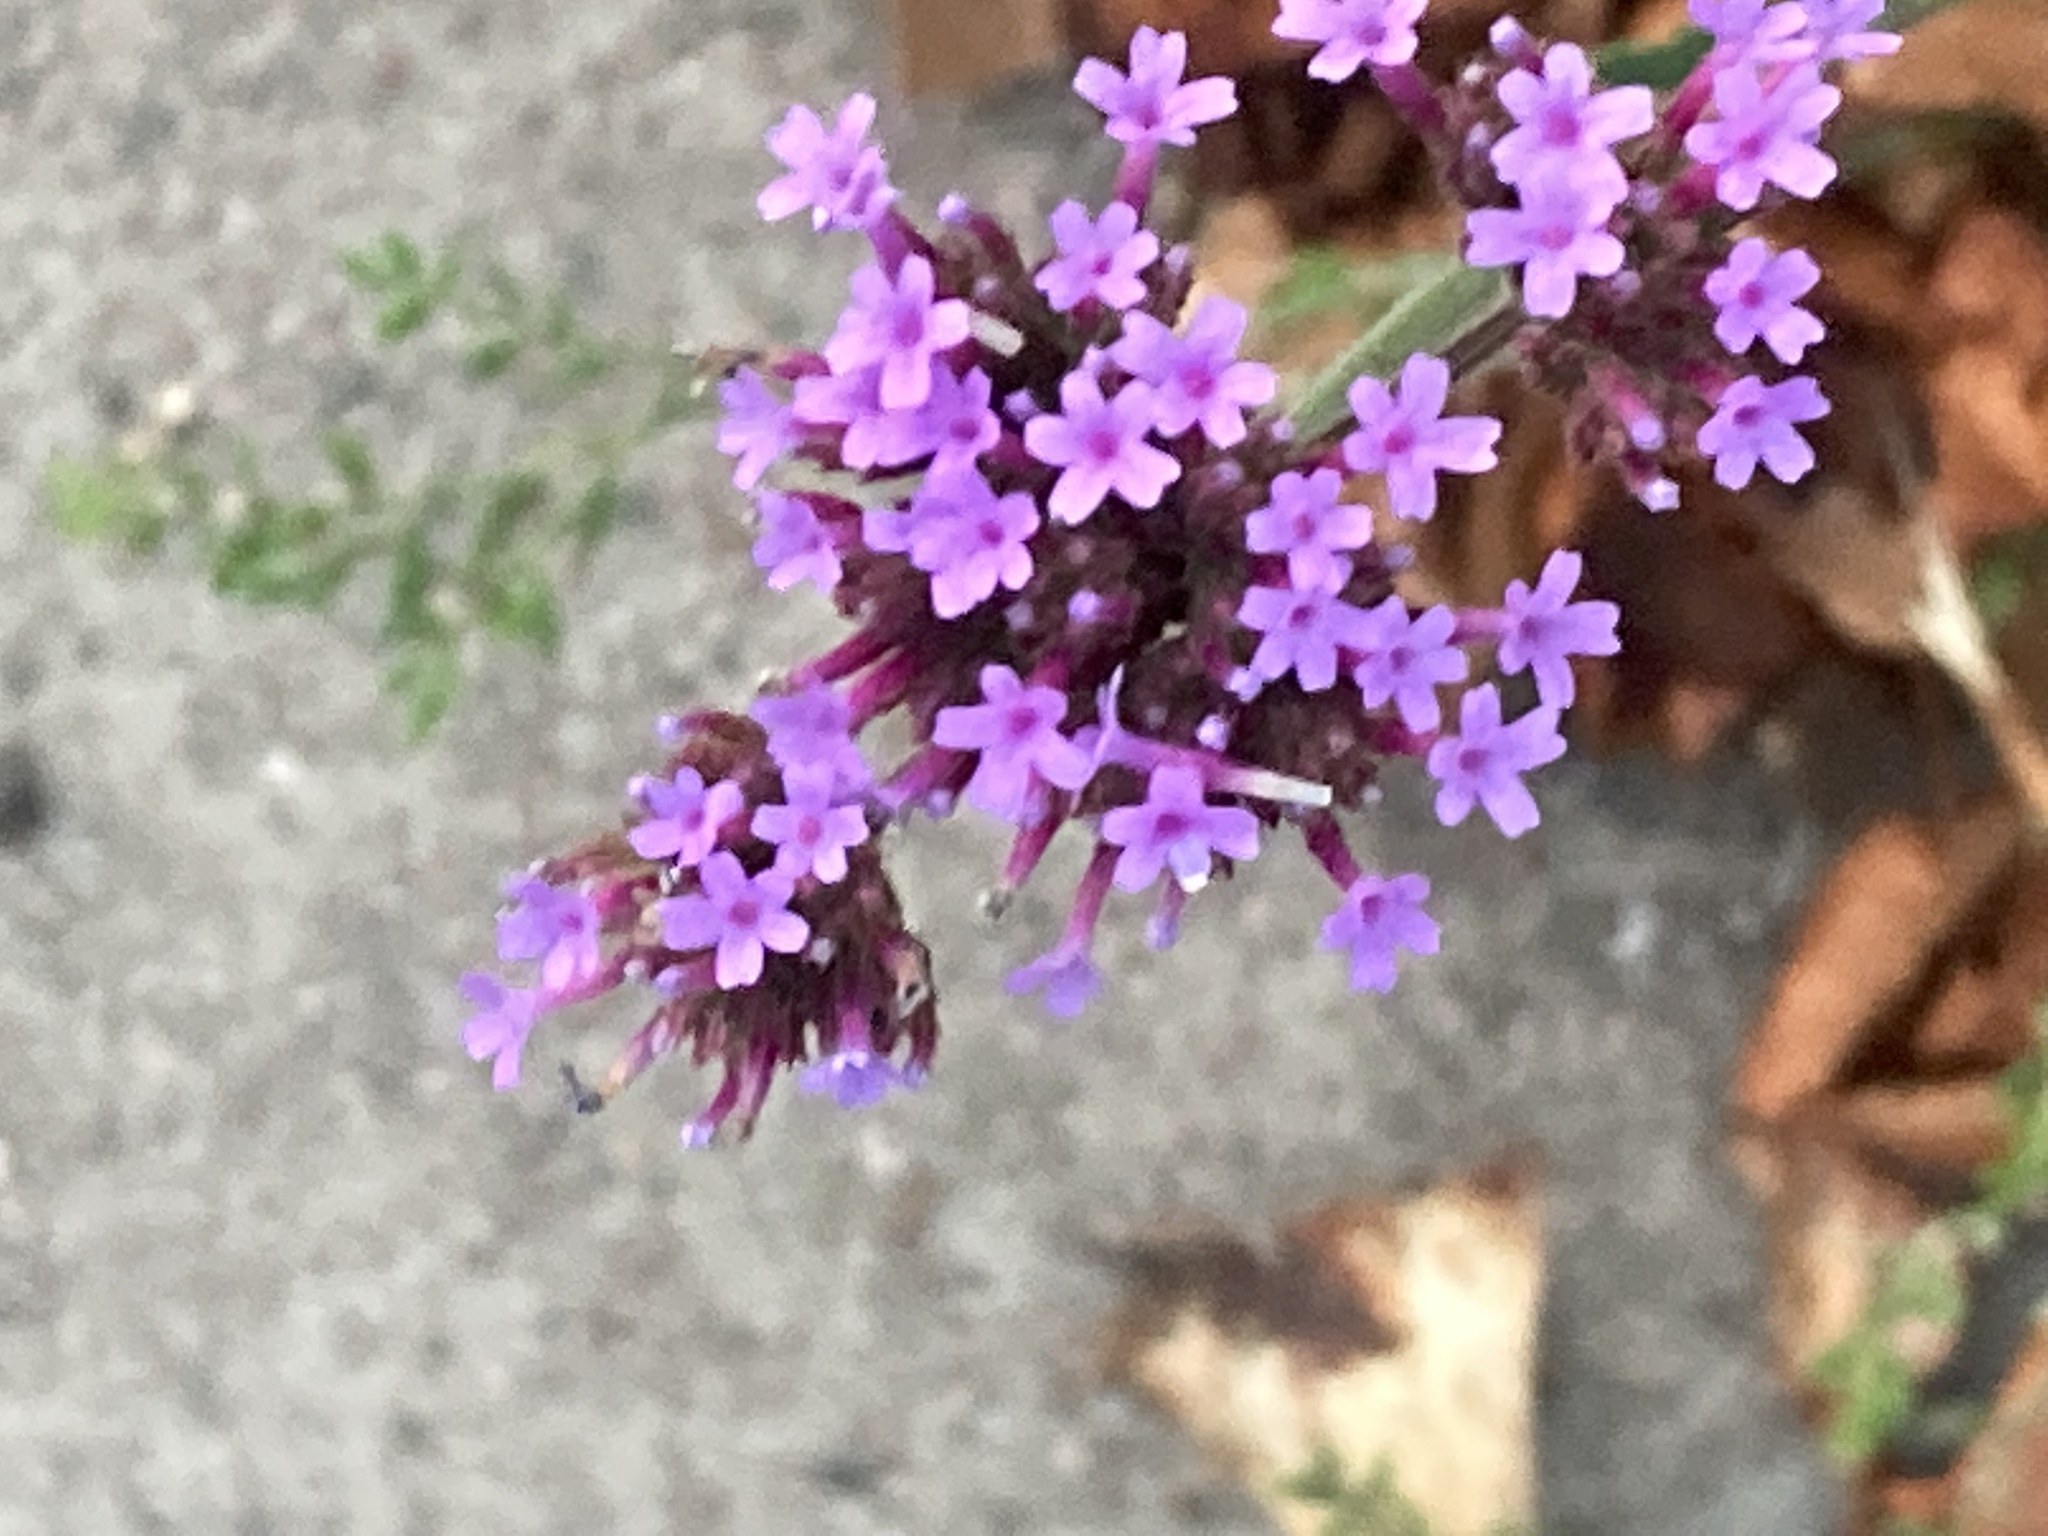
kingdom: Plantae
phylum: Tracheophyta
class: Magnoliopsida
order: Lamiales
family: Verbenaceae
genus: Verbena
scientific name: Verbena bonariensis
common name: Purpletop vervain
